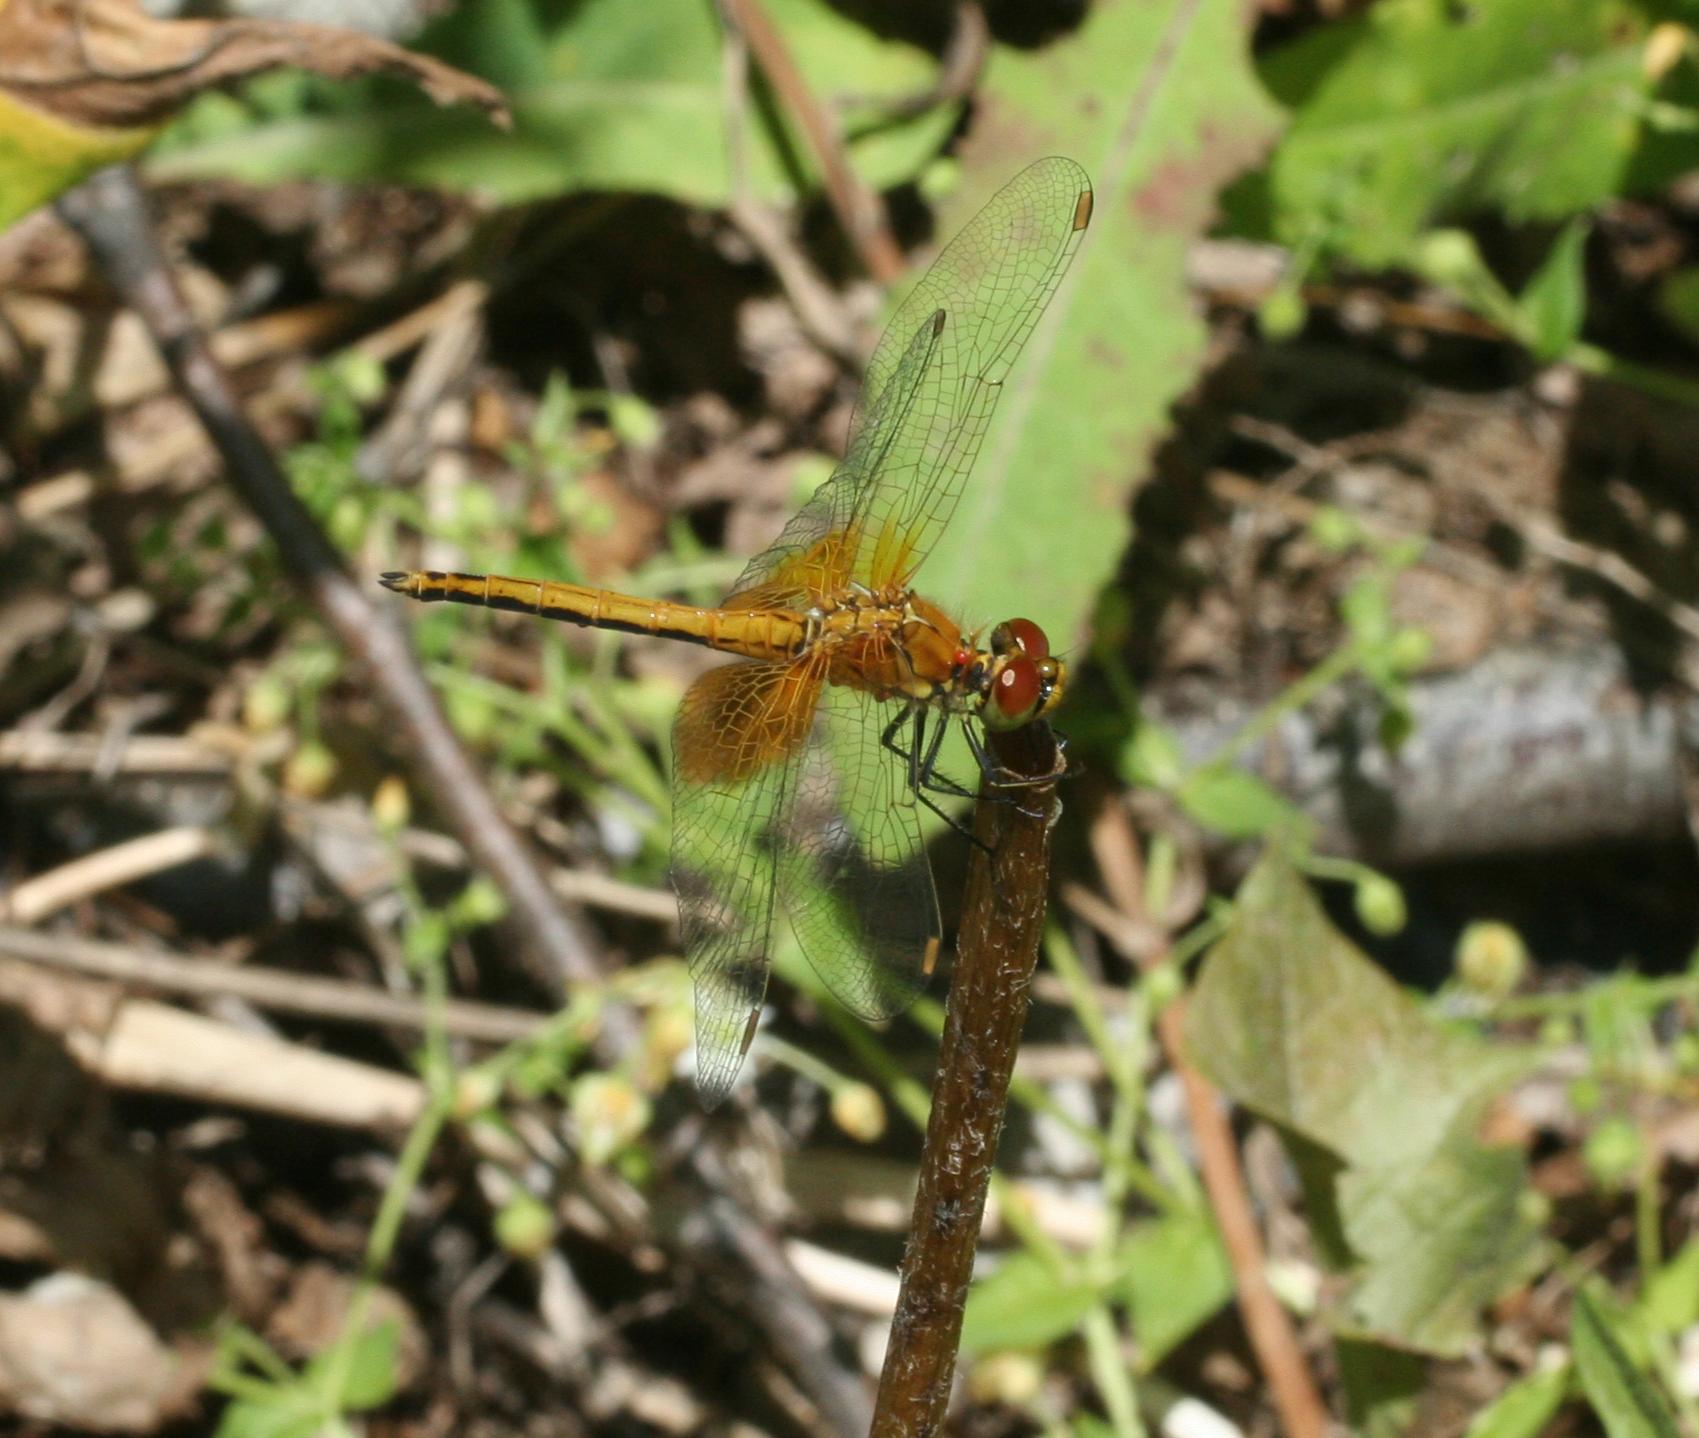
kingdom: Animalia
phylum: Arthropoda
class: Insecta
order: Odonata
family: Libellulidae
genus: Sympetrum
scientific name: Sympetrum flaveolum
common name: Yellow-winged darter
